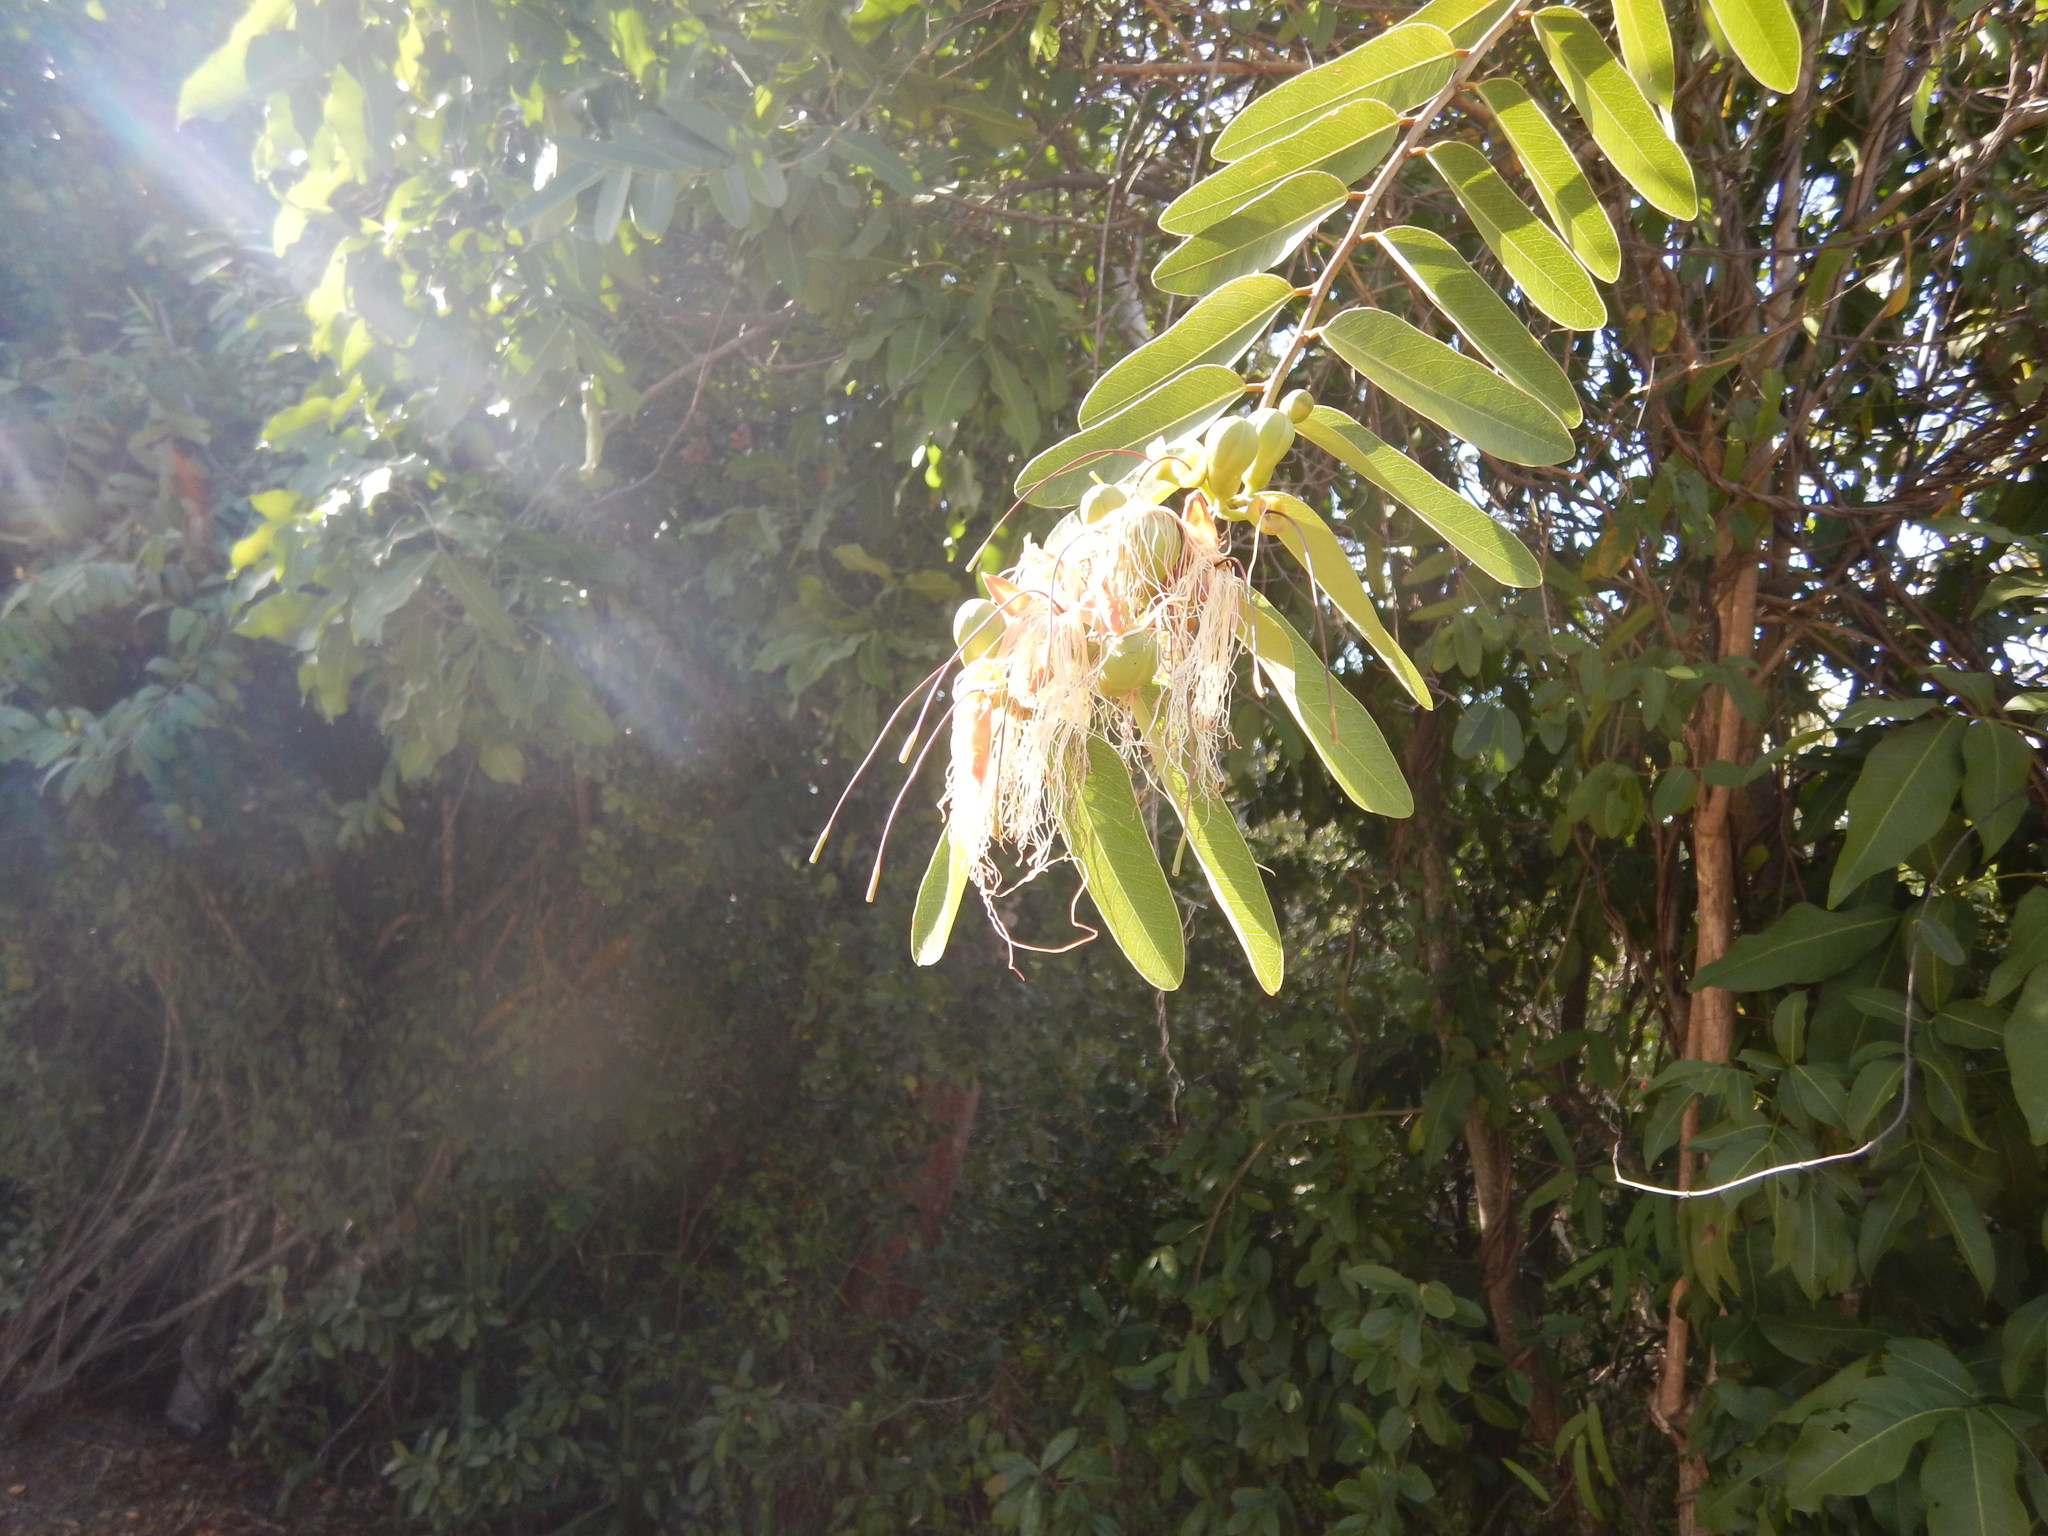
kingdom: Plantae
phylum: Tracheophyta
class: Magnoliopsida
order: Brassicales
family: Capparaceae
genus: Cynophalla
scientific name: Cynophalla flexuosa
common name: Capertree
